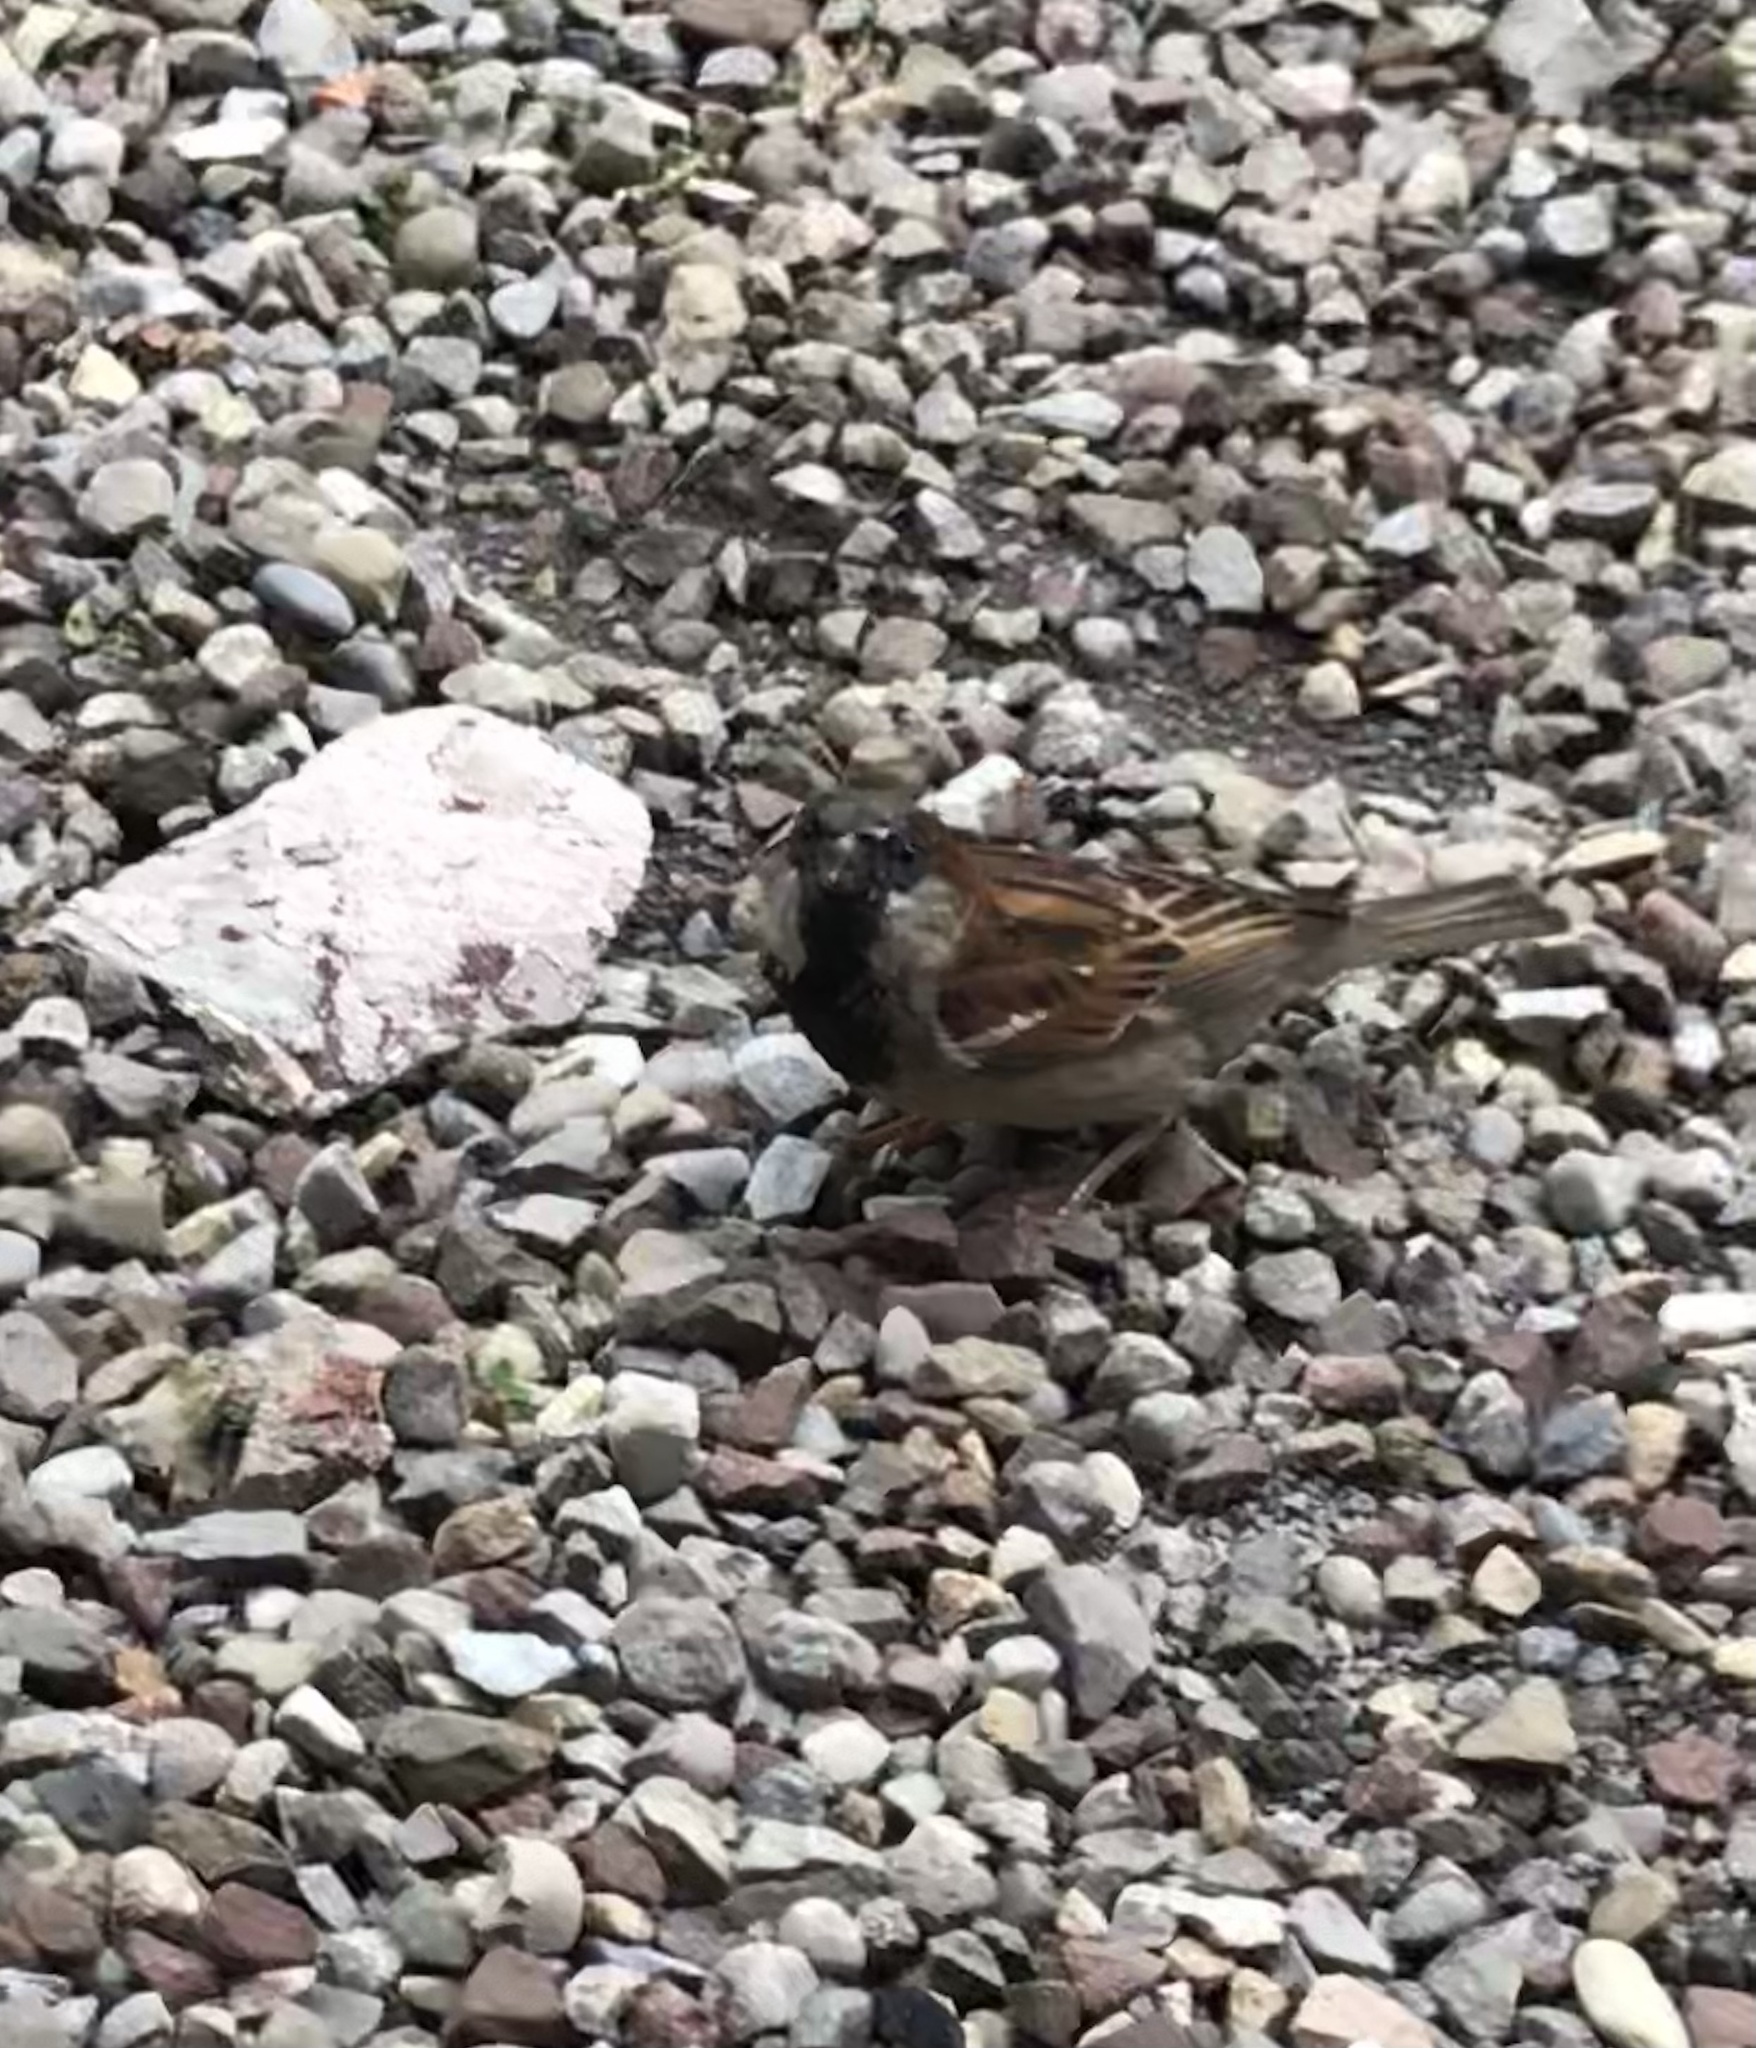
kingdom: Animalia
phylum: Chordata
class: Aves
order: Passeriformes
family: Passeridae
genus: Passer
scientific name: Passer domesticus
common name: House sparrow
